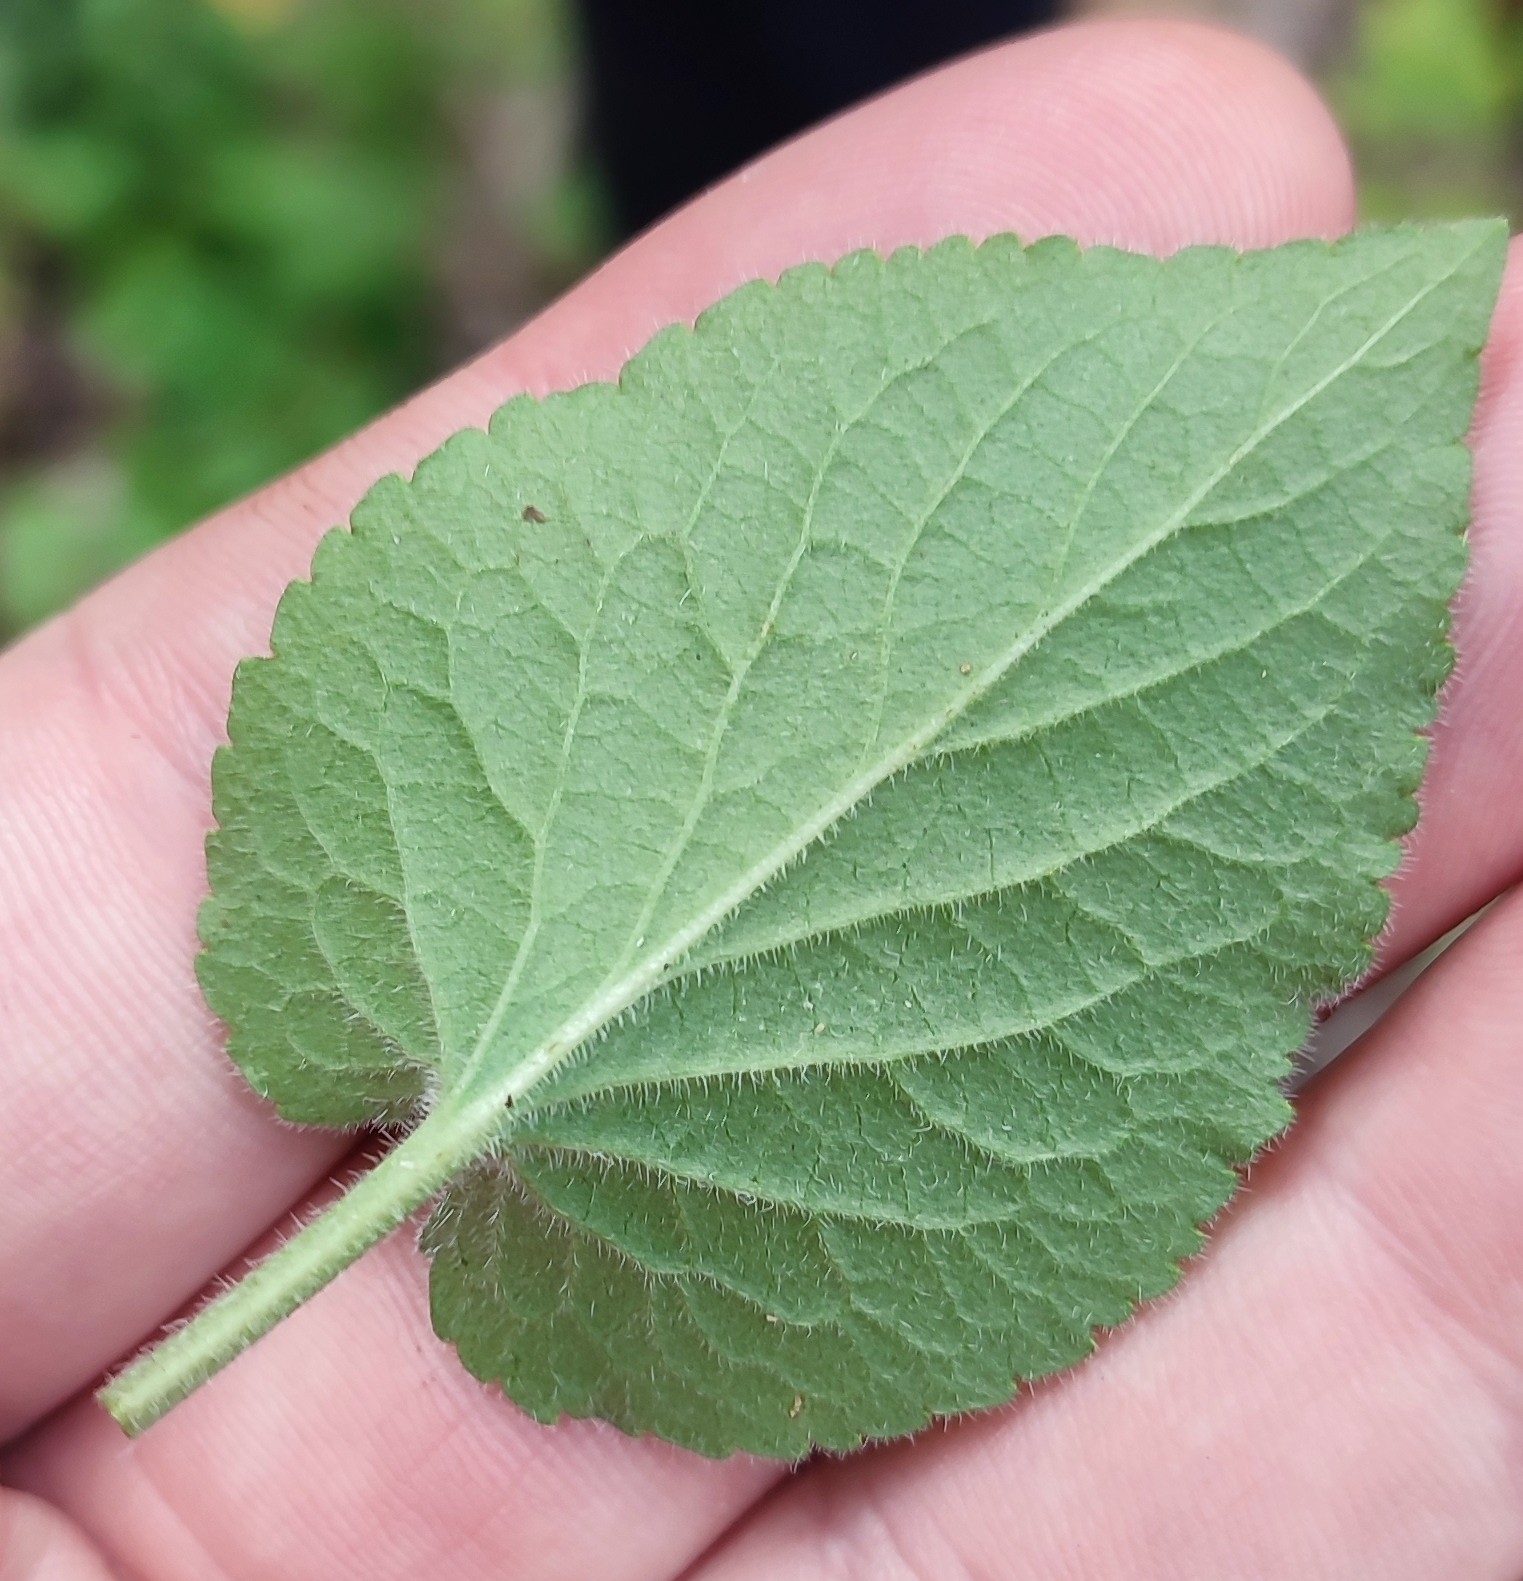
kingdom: Plantae
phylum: Tracheophyta
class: Magnoliopsida
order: Malpighiales
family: Violaceae
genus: Viola
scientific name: Viola hirta
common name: Hairy violet
